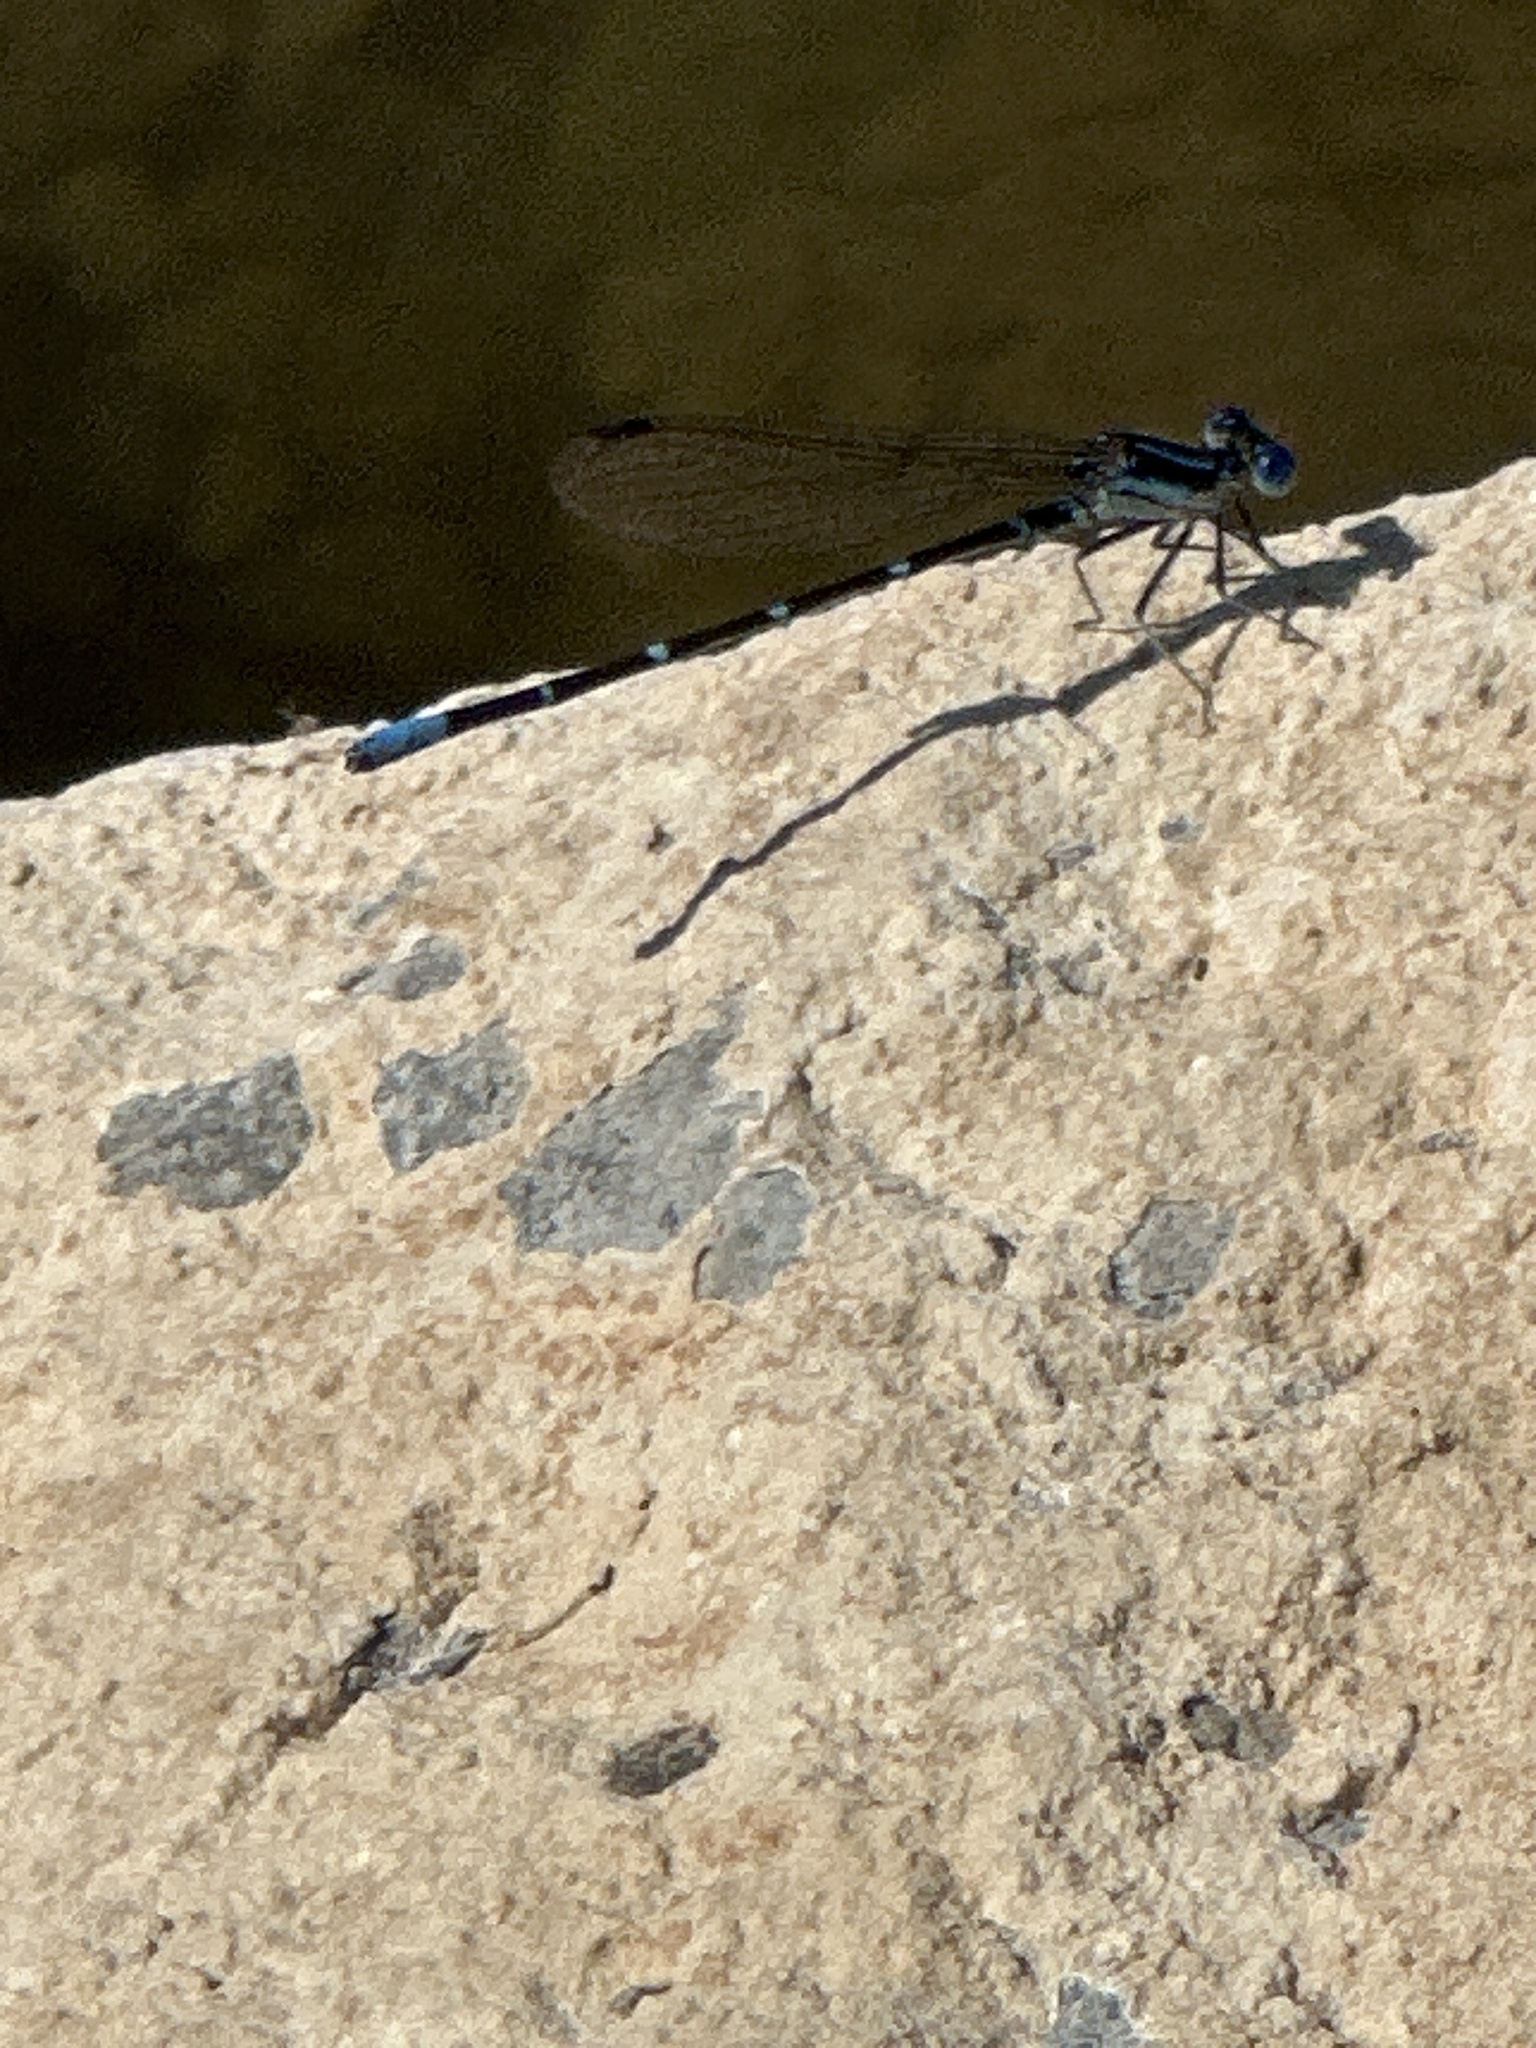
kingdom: Animalia
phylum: Arthropoda
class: Insecta
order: Odonata
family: Coenagrionidae
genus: Argia
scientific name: Argia sedula
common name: Blue-ringed dancer
